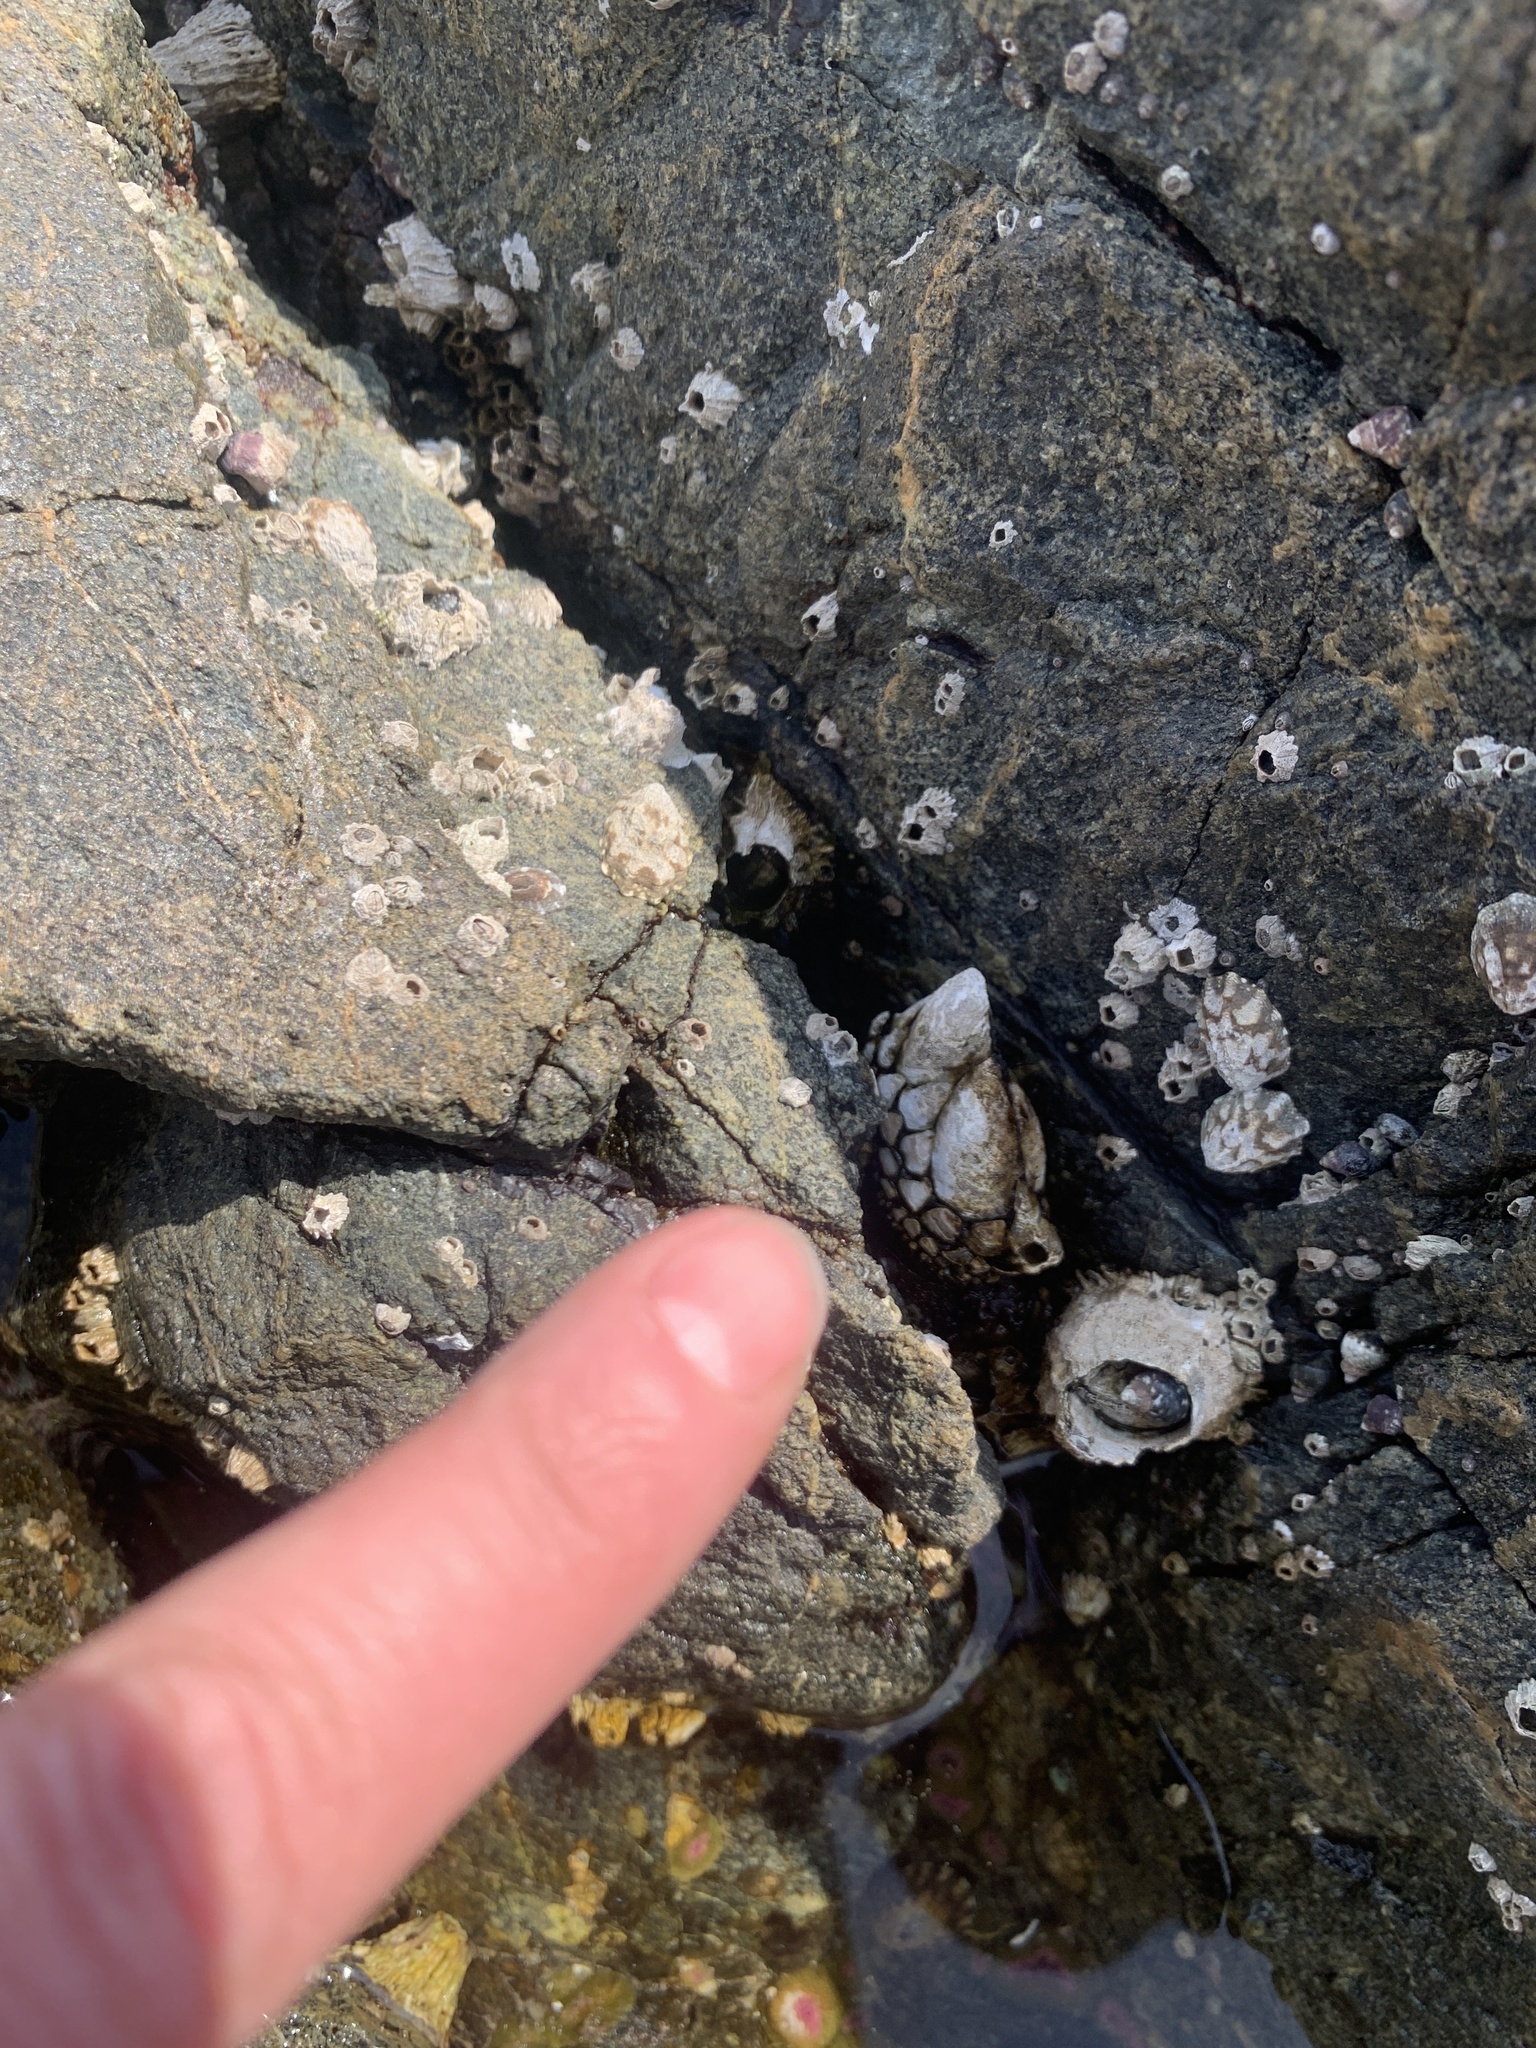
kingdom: Animalia
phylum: Arthropoda
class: Maxillopoda
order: Pedunculata
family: Pollicipedidae
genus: Pollicipes
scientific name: Pollicipes polymerus
